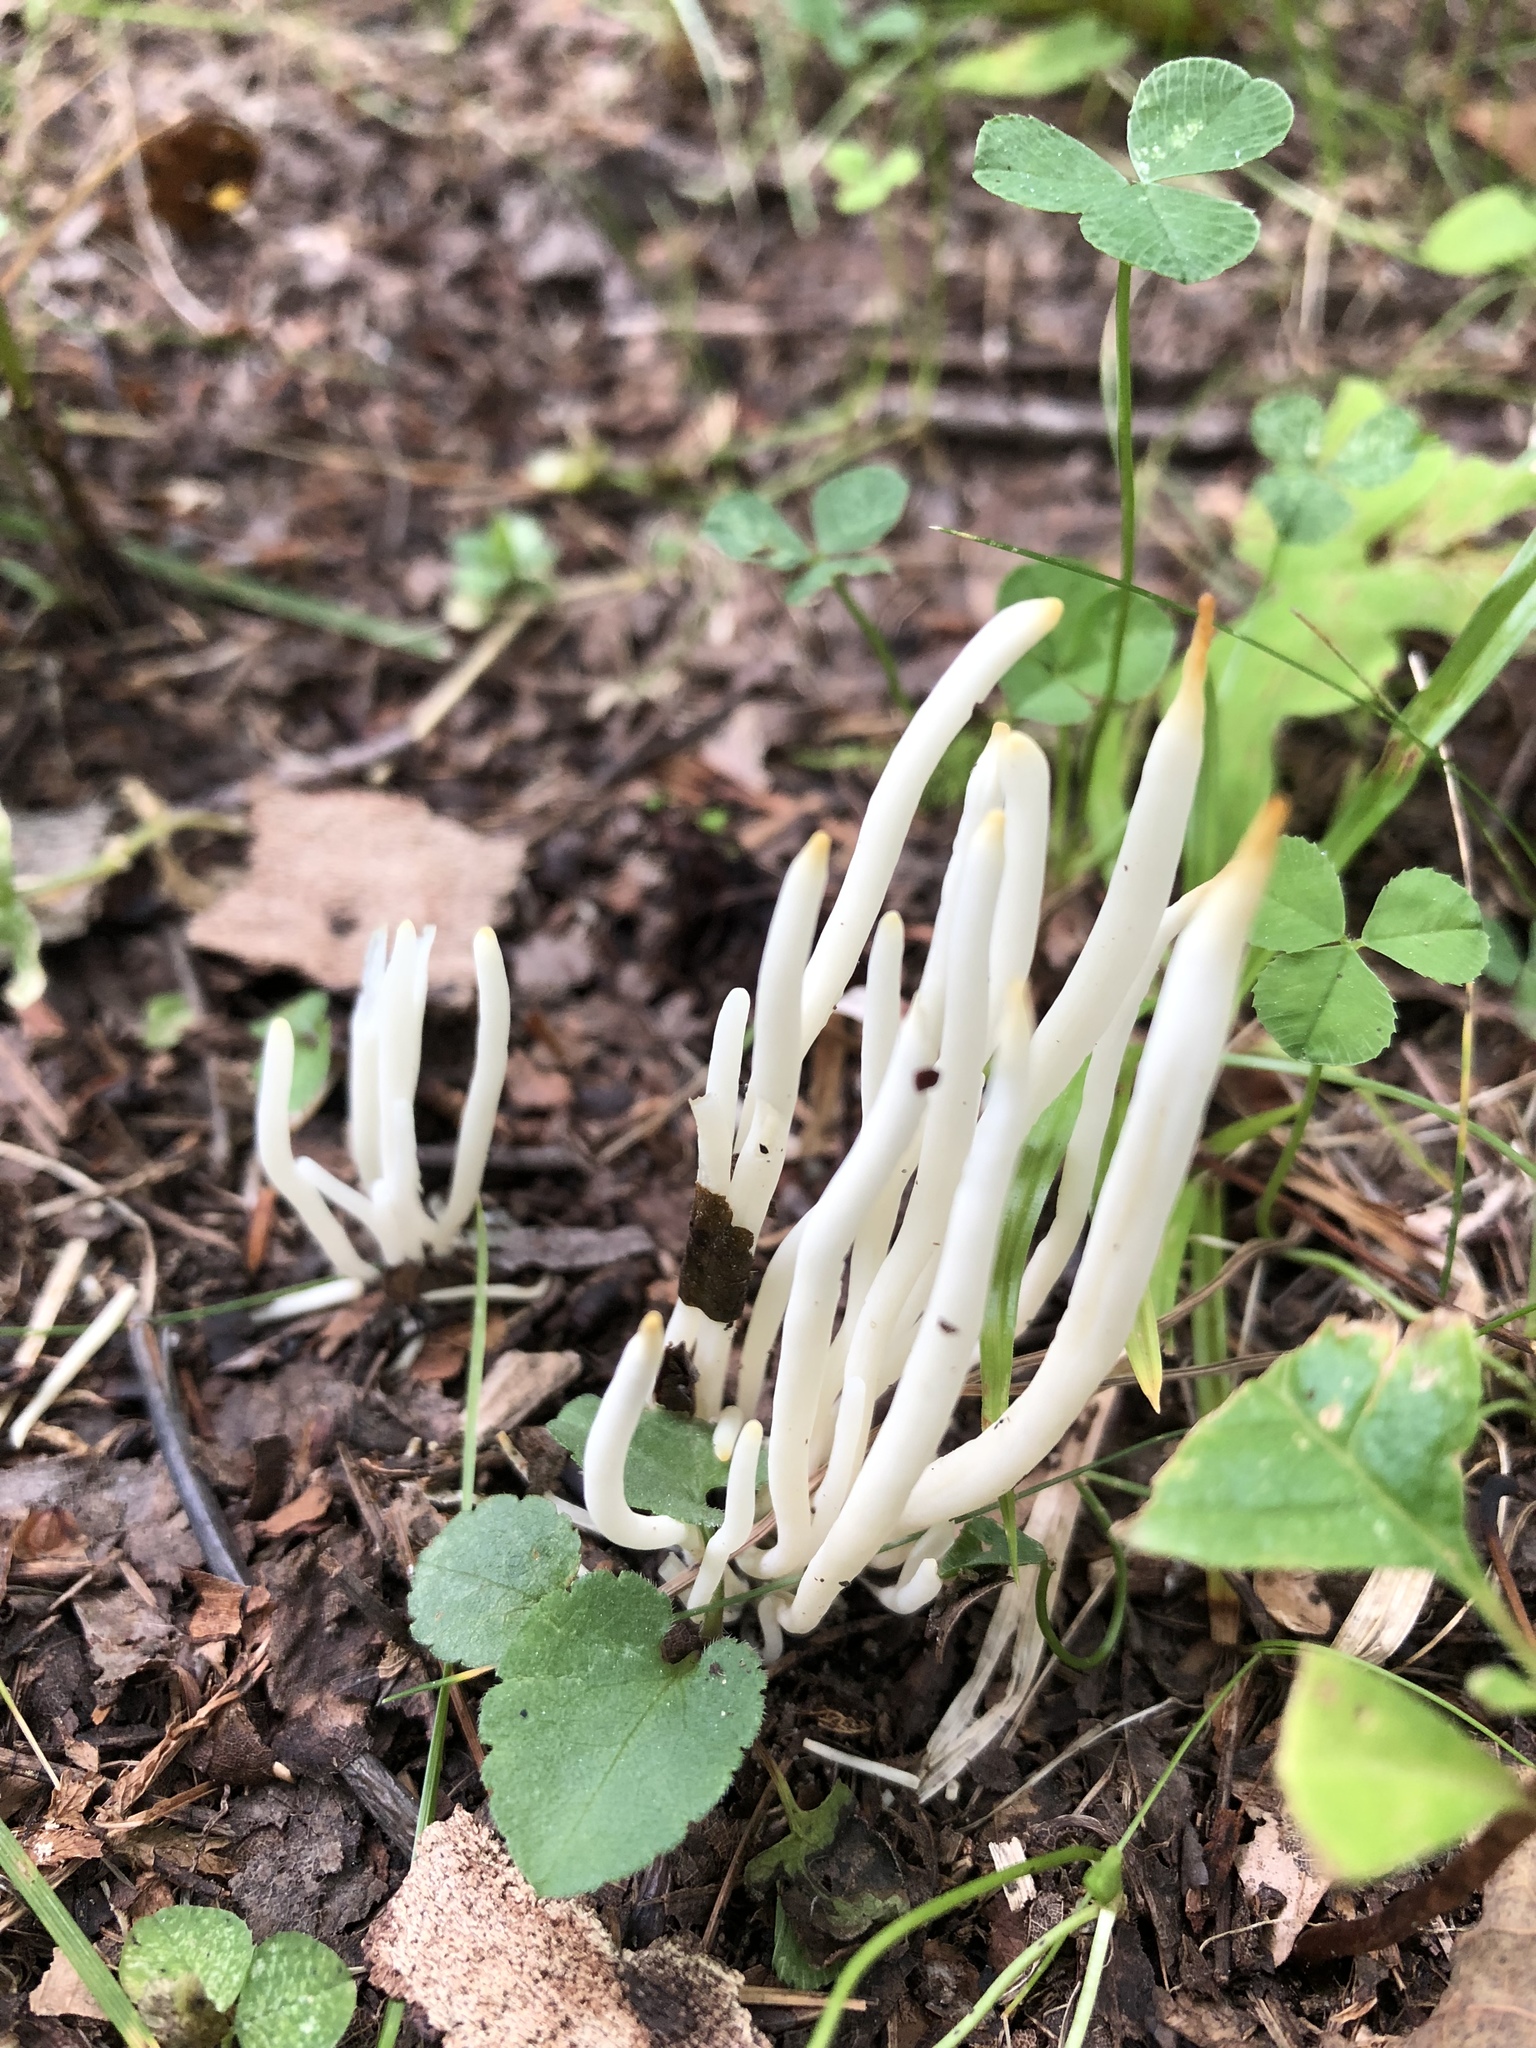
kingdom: Fungi
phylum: Basidiomycota
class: Agaricomycetes
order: Agaricales
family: Clavariaceae
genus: Clavaria
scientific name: Clavaria fragilis
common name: White spindles
